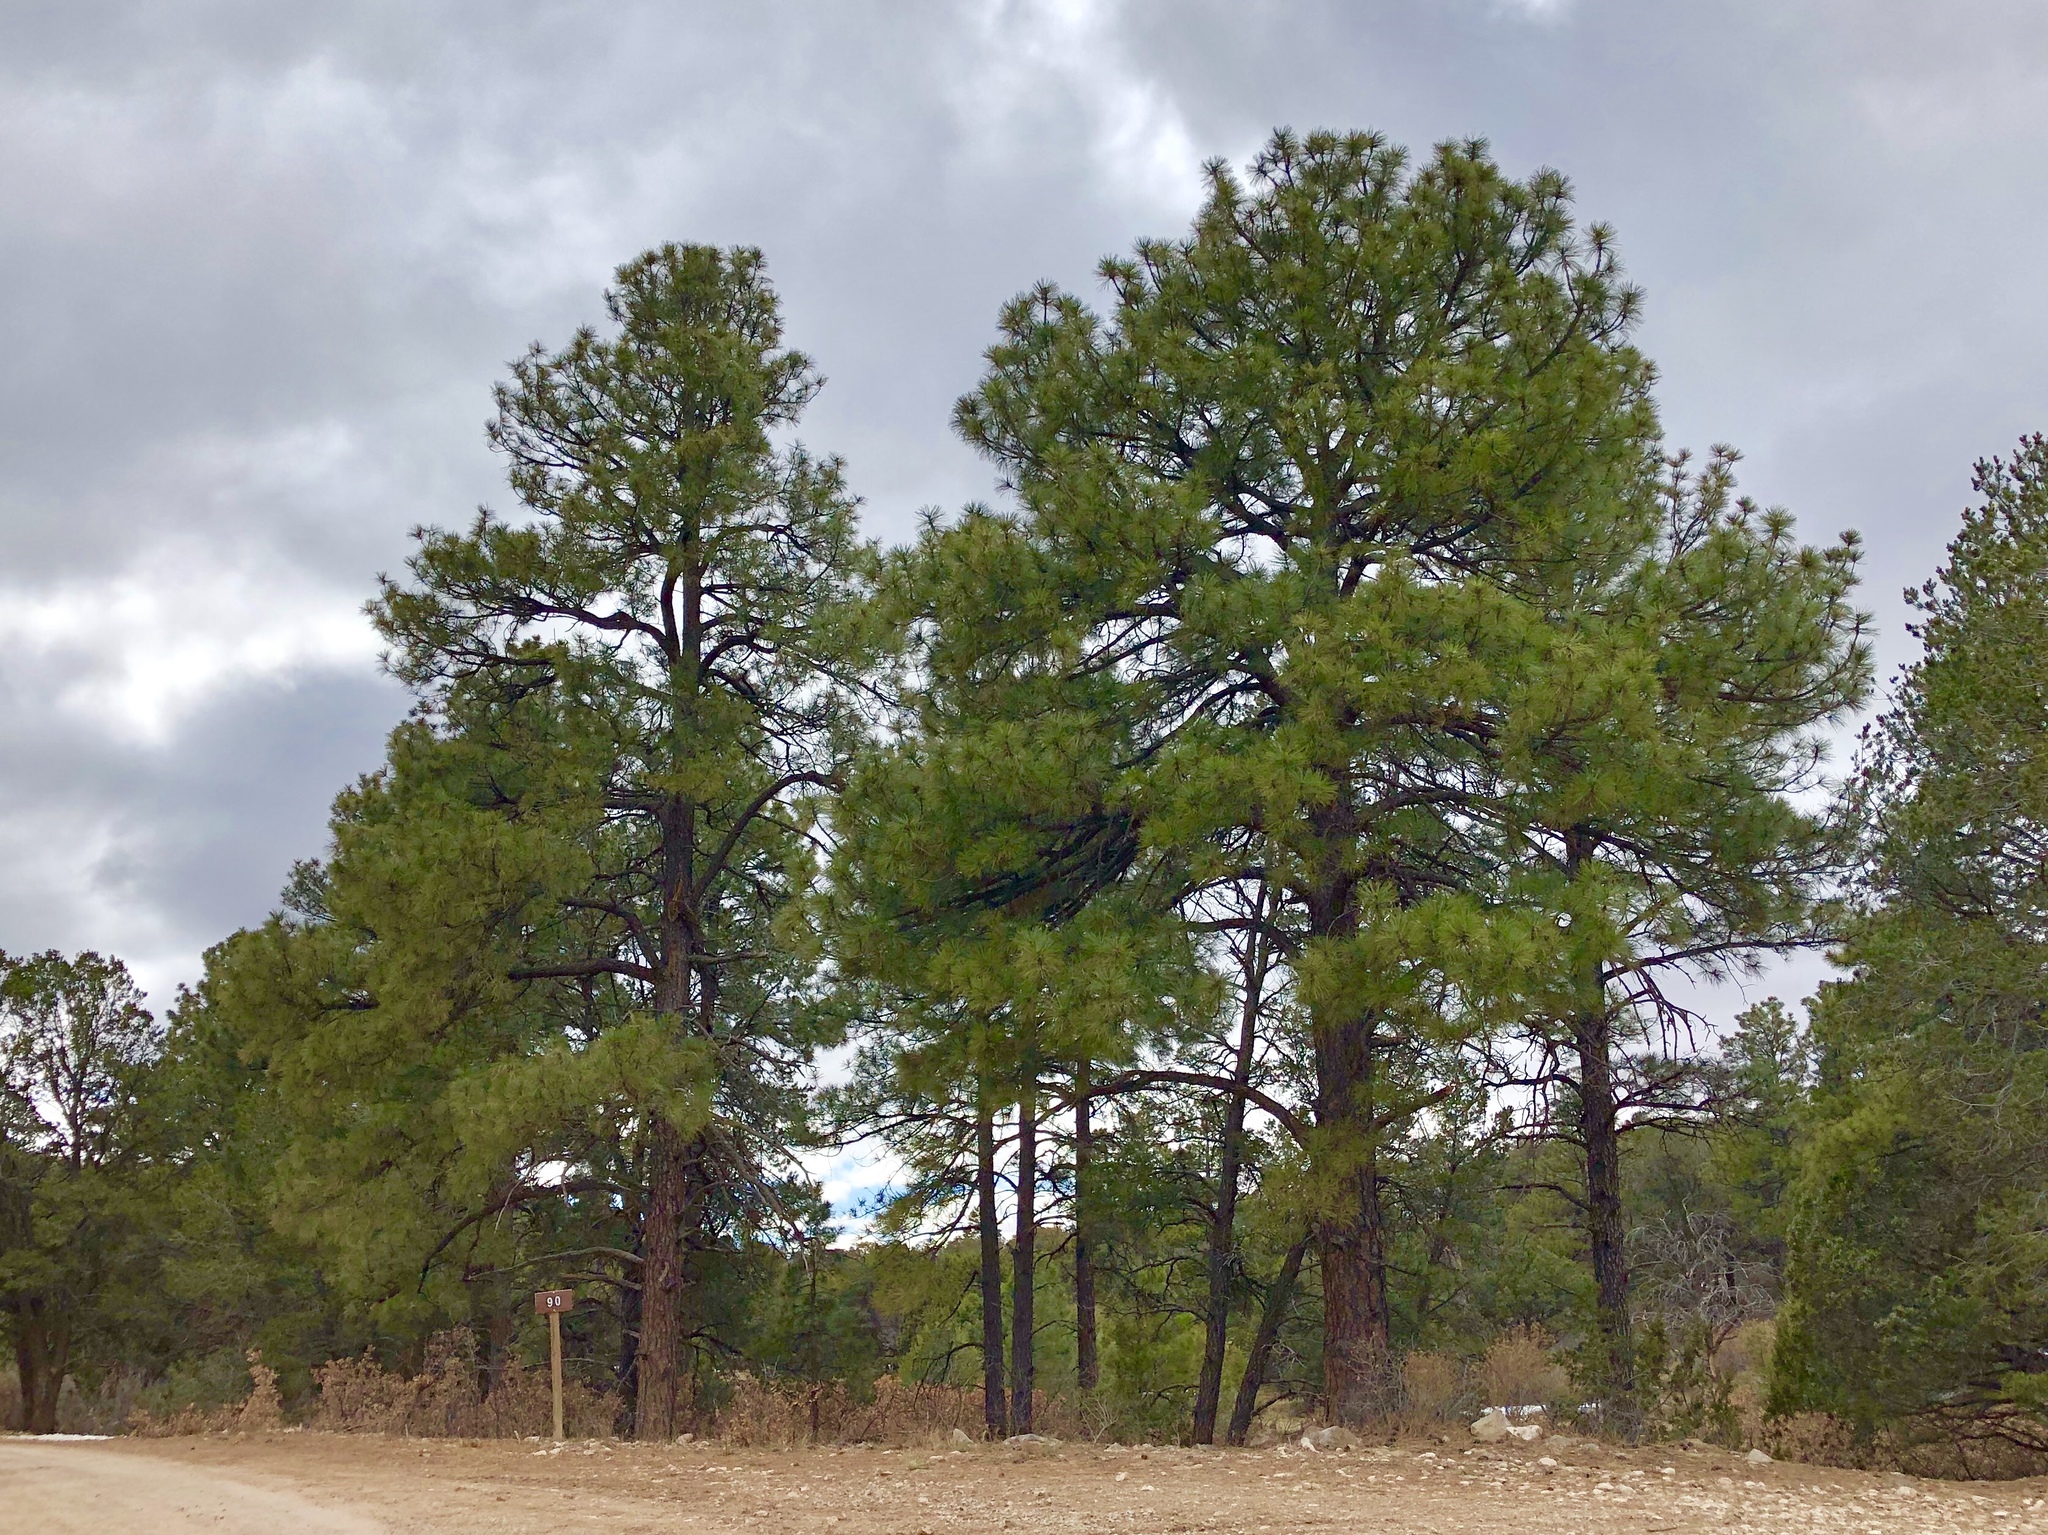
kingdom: Plantae
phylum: Tracheophyta
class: Pinopsida
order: Pinales
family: Pinaceae
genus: Pinus
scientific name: Pinus ponderosa
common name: Western yellow-pine
